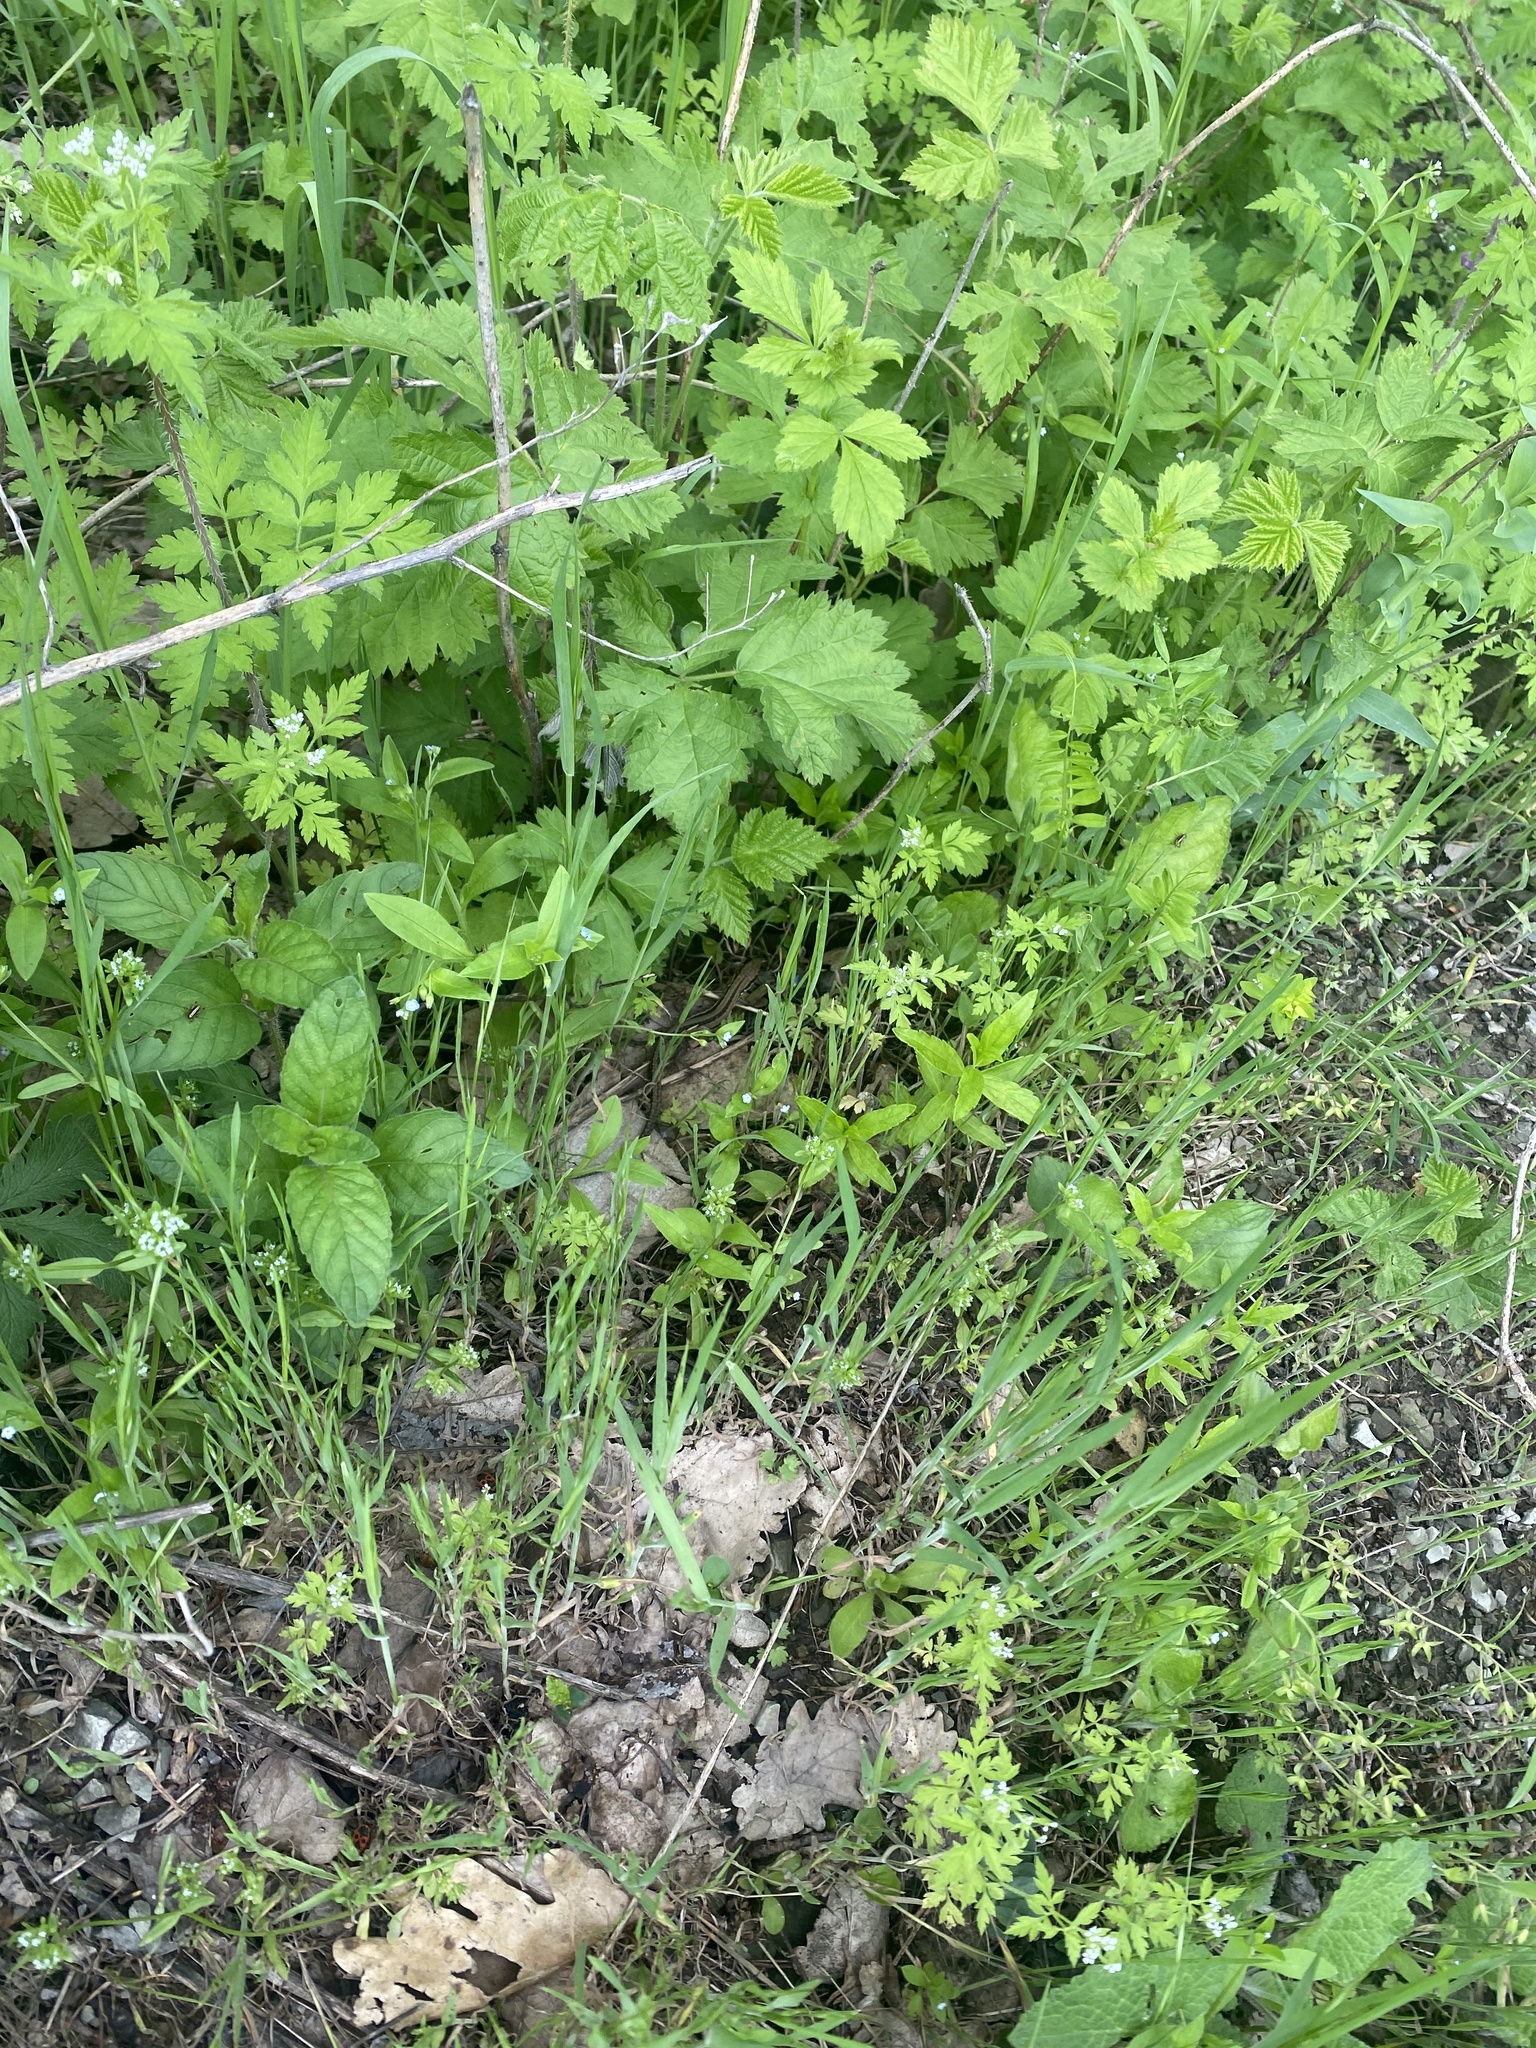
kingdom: Animalia
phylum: Chordata
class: Squamata
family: Lacertidae
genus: Darevskia
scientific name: Darevskia praticola
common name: Meadow lizard
